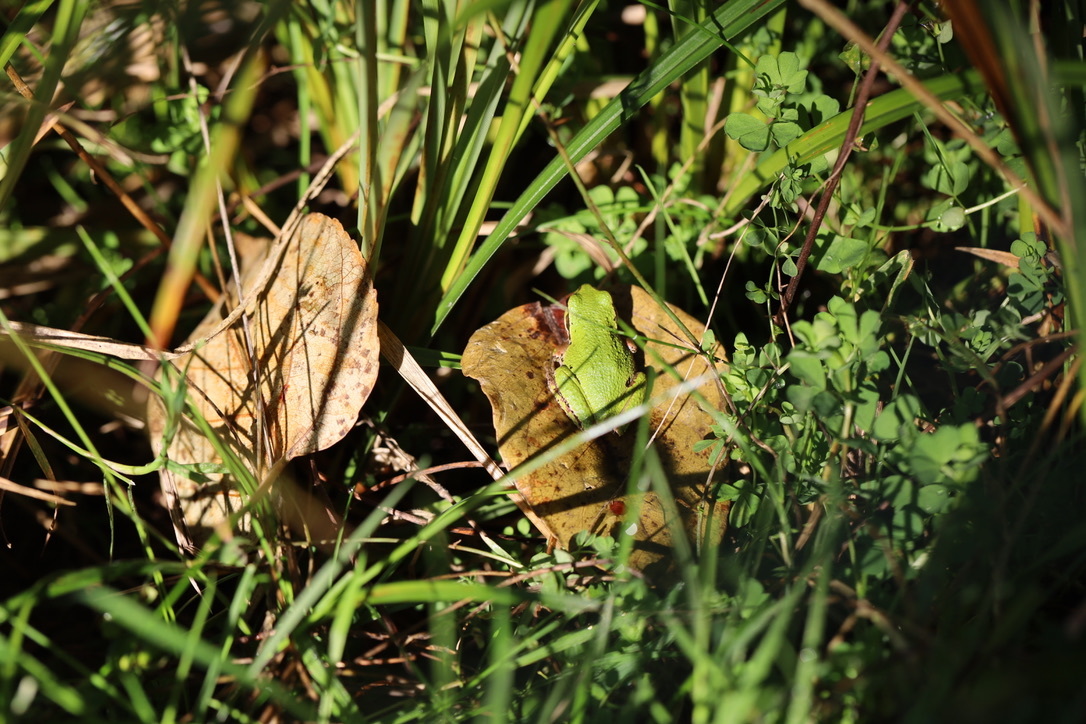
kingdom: Animalia
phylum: Chordata
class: Amphibia
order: Anura
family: Hylidae
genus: Pseudacris
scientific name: Pseudacris regilla
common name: Pacific chorus frog
